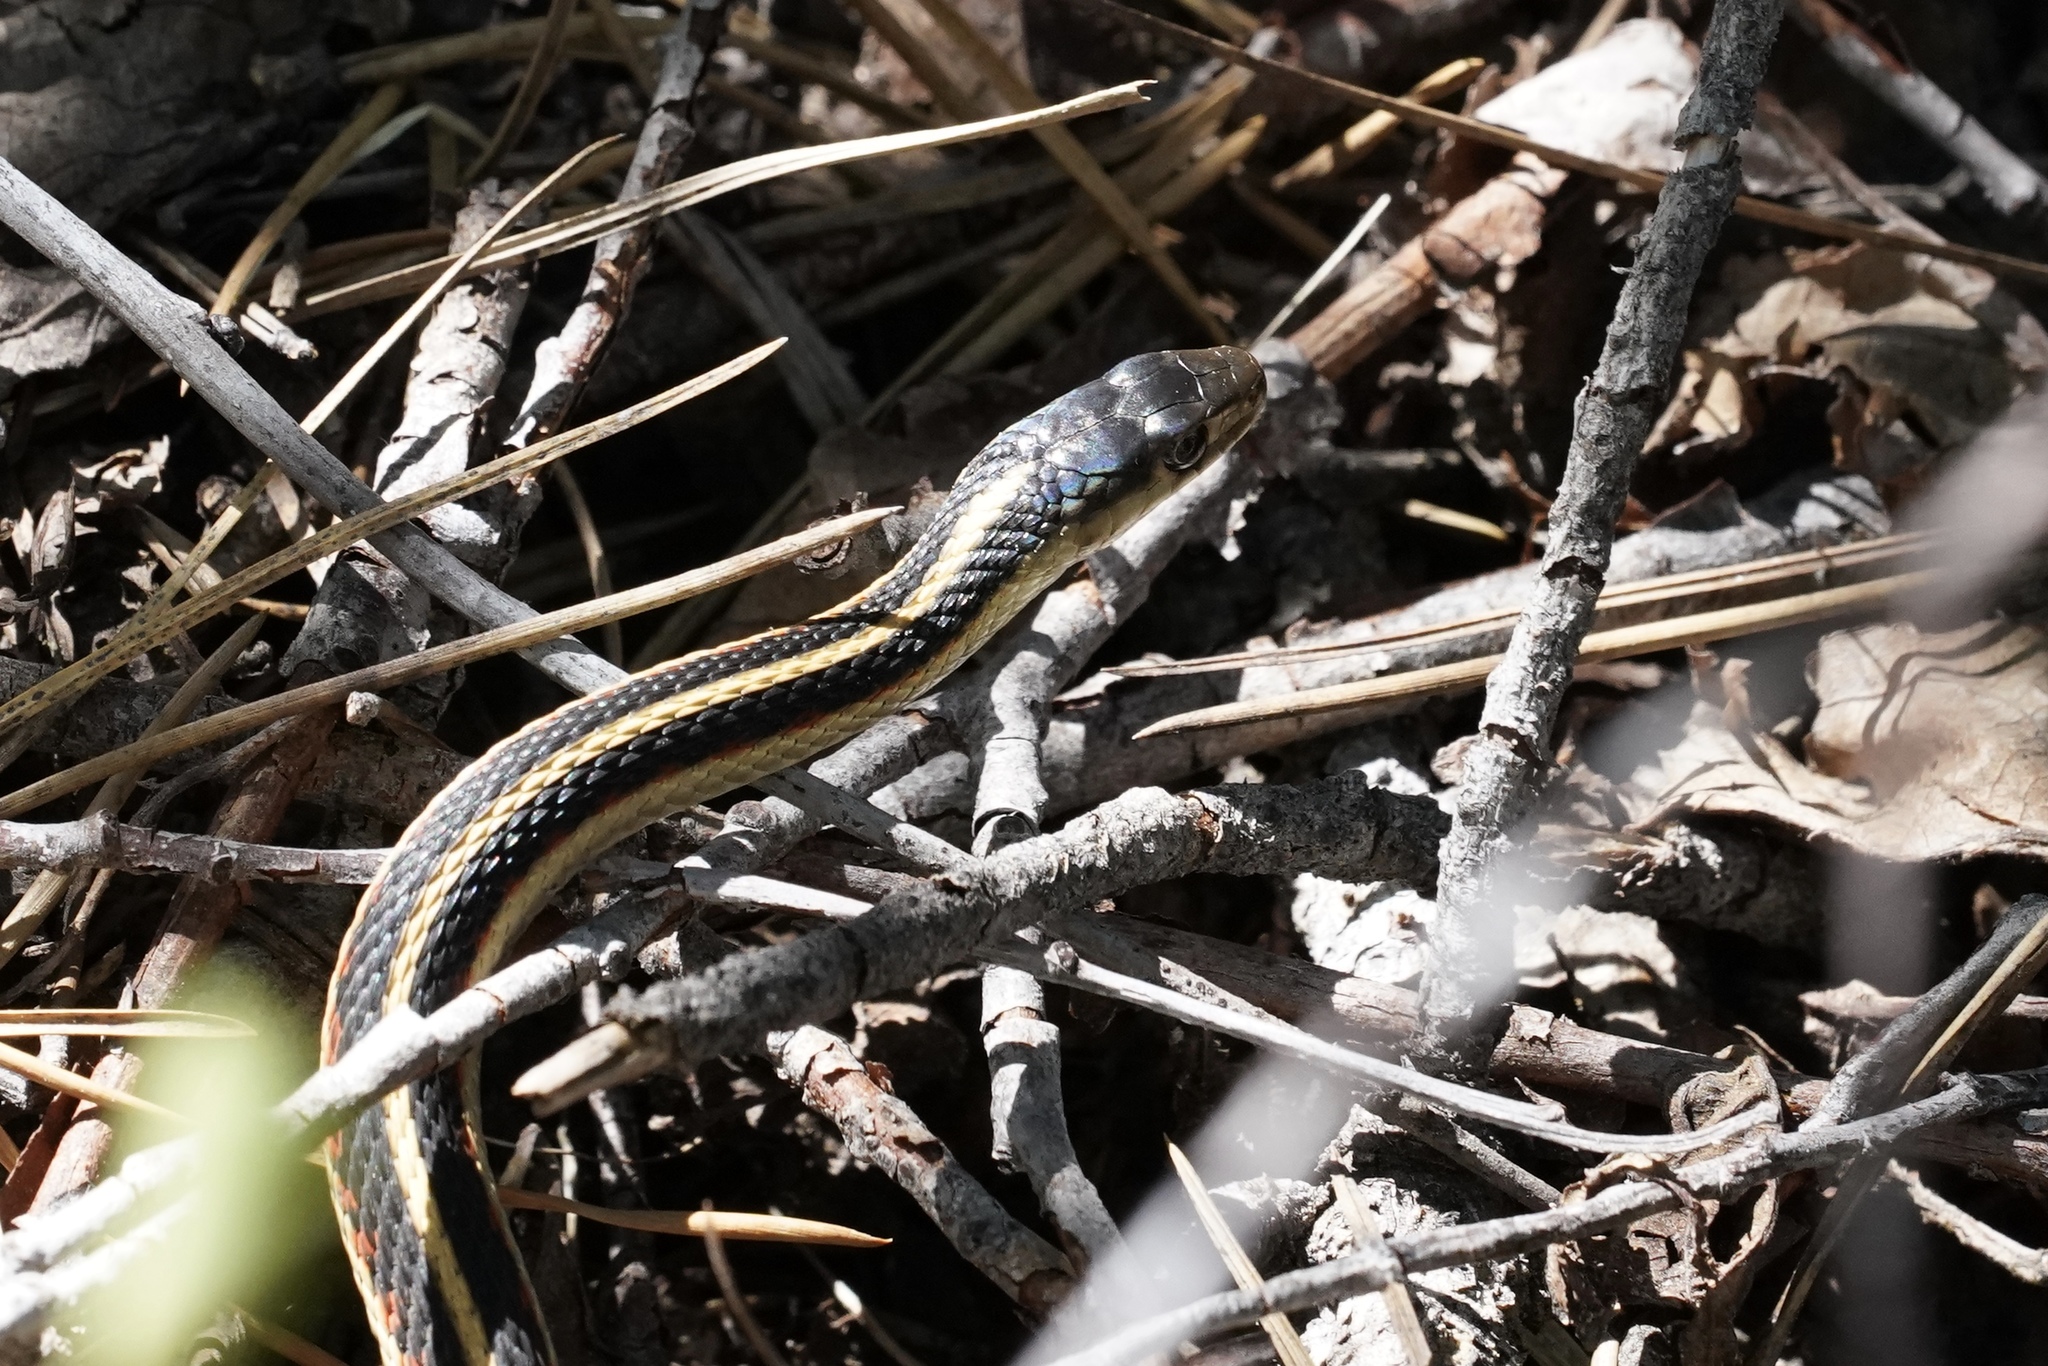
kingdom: Animalia
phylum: Chordata
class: Squamata
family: Colubridae
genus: Thamnophis
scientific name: Thamnophis sirtalis
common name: Common garter snake
